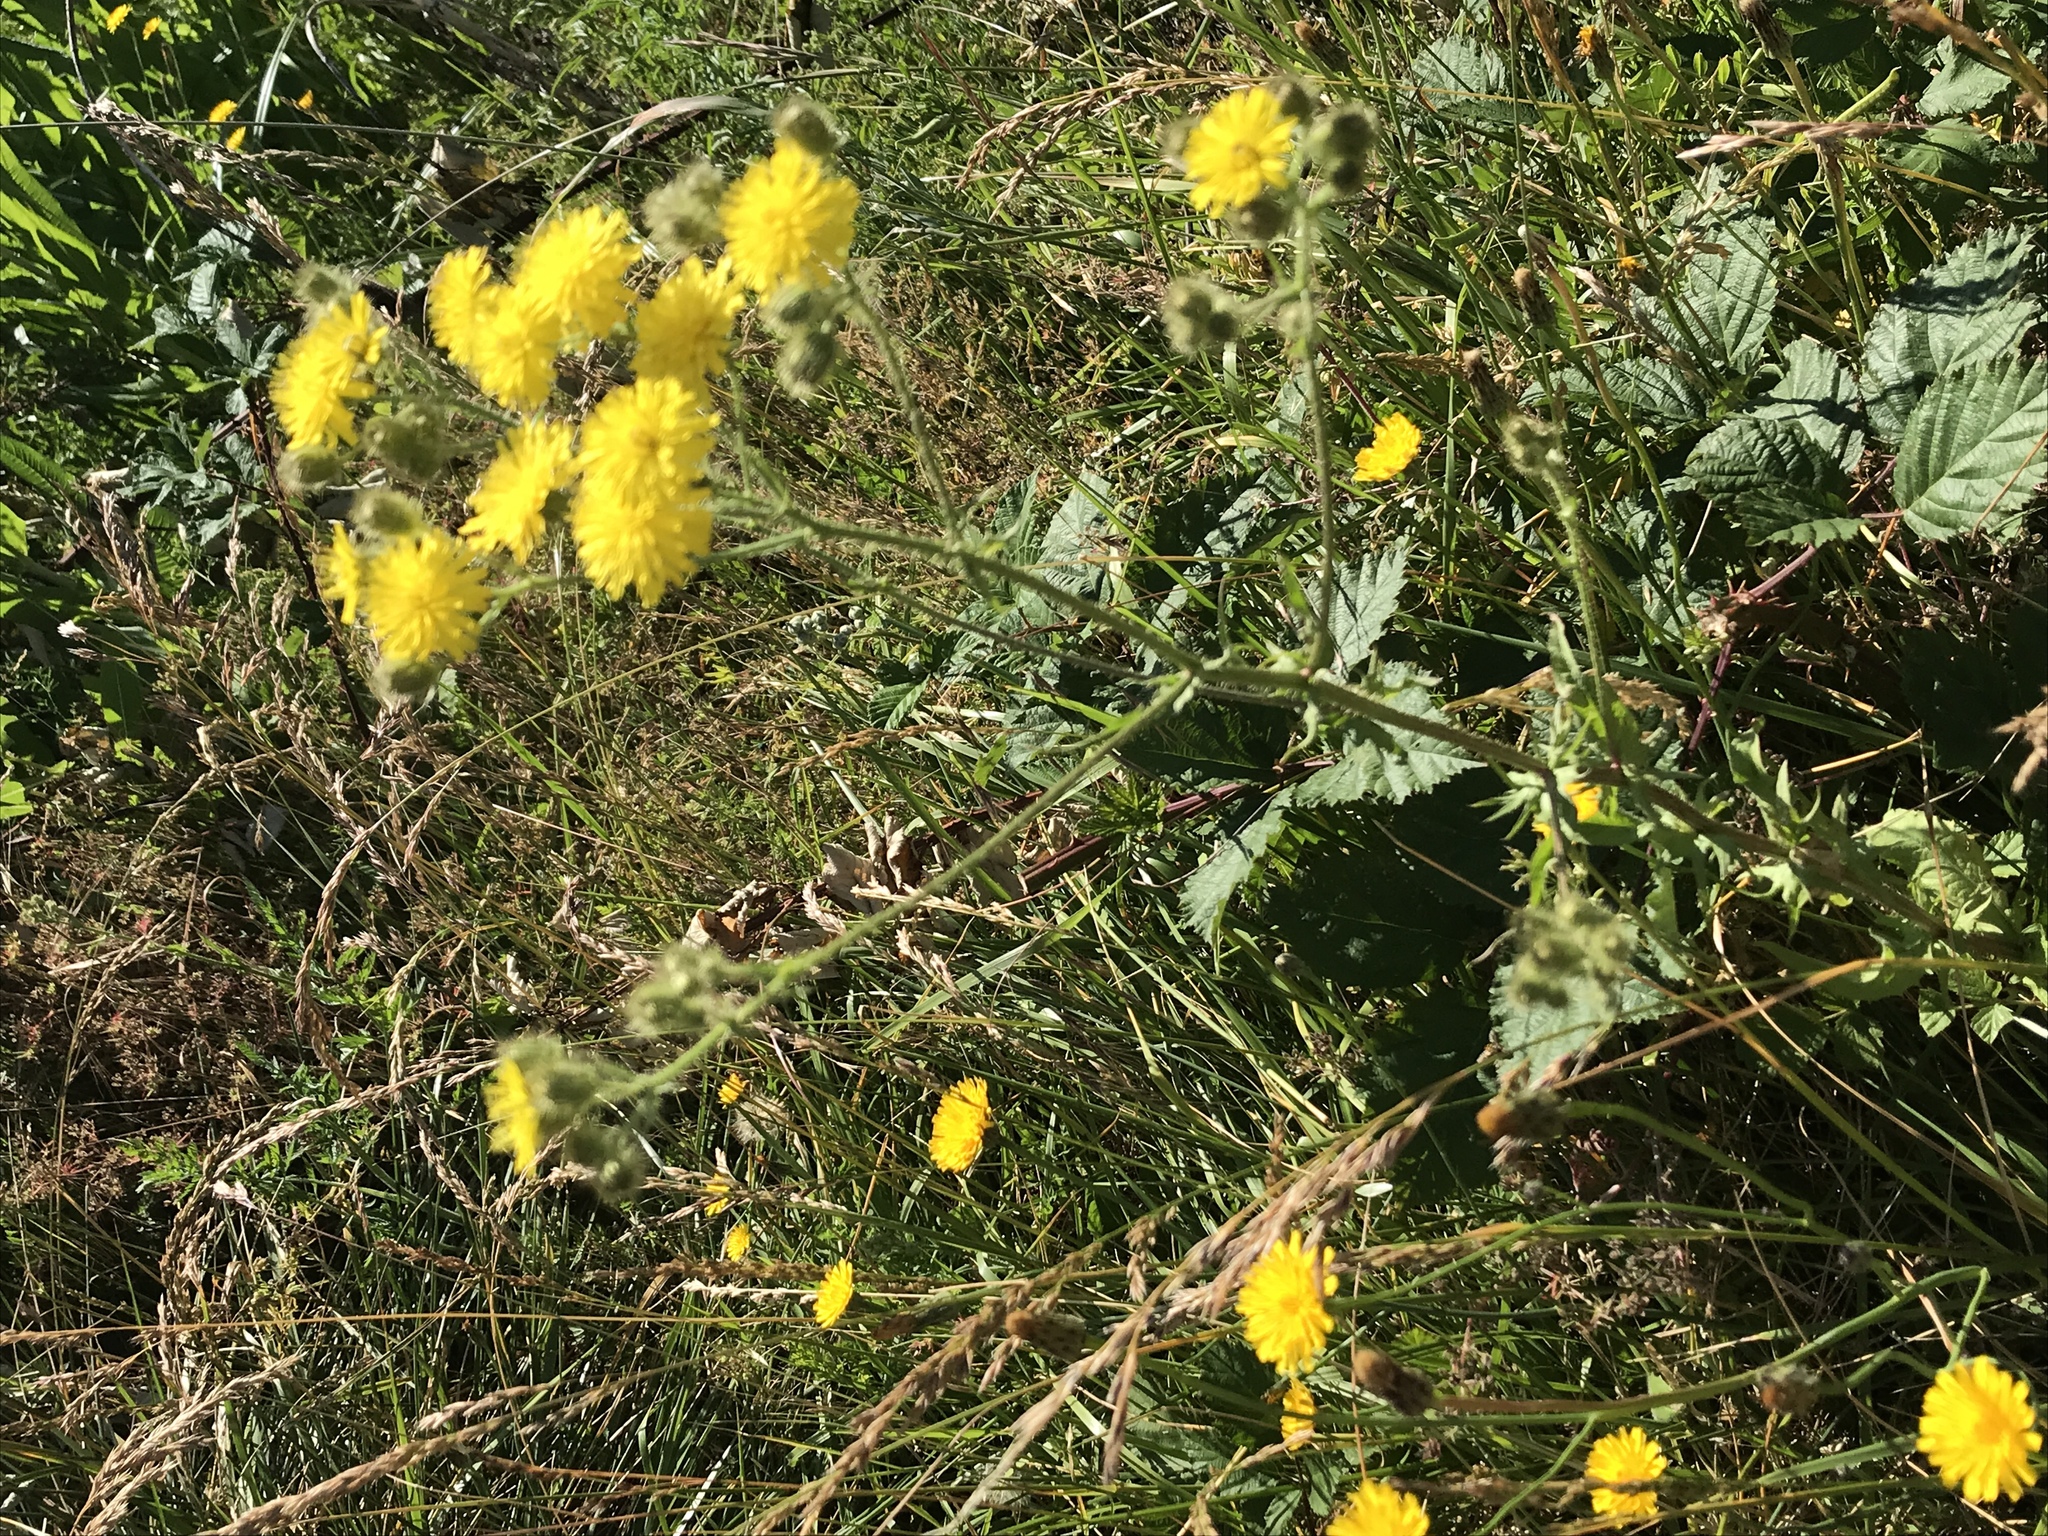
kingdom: Plantae
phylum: Tracheophyta
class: Magnoliopsida
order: Asterales
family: Asteraceae
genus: Crepis
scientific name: Crepis setosa
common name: Bristly hawk's-beard
